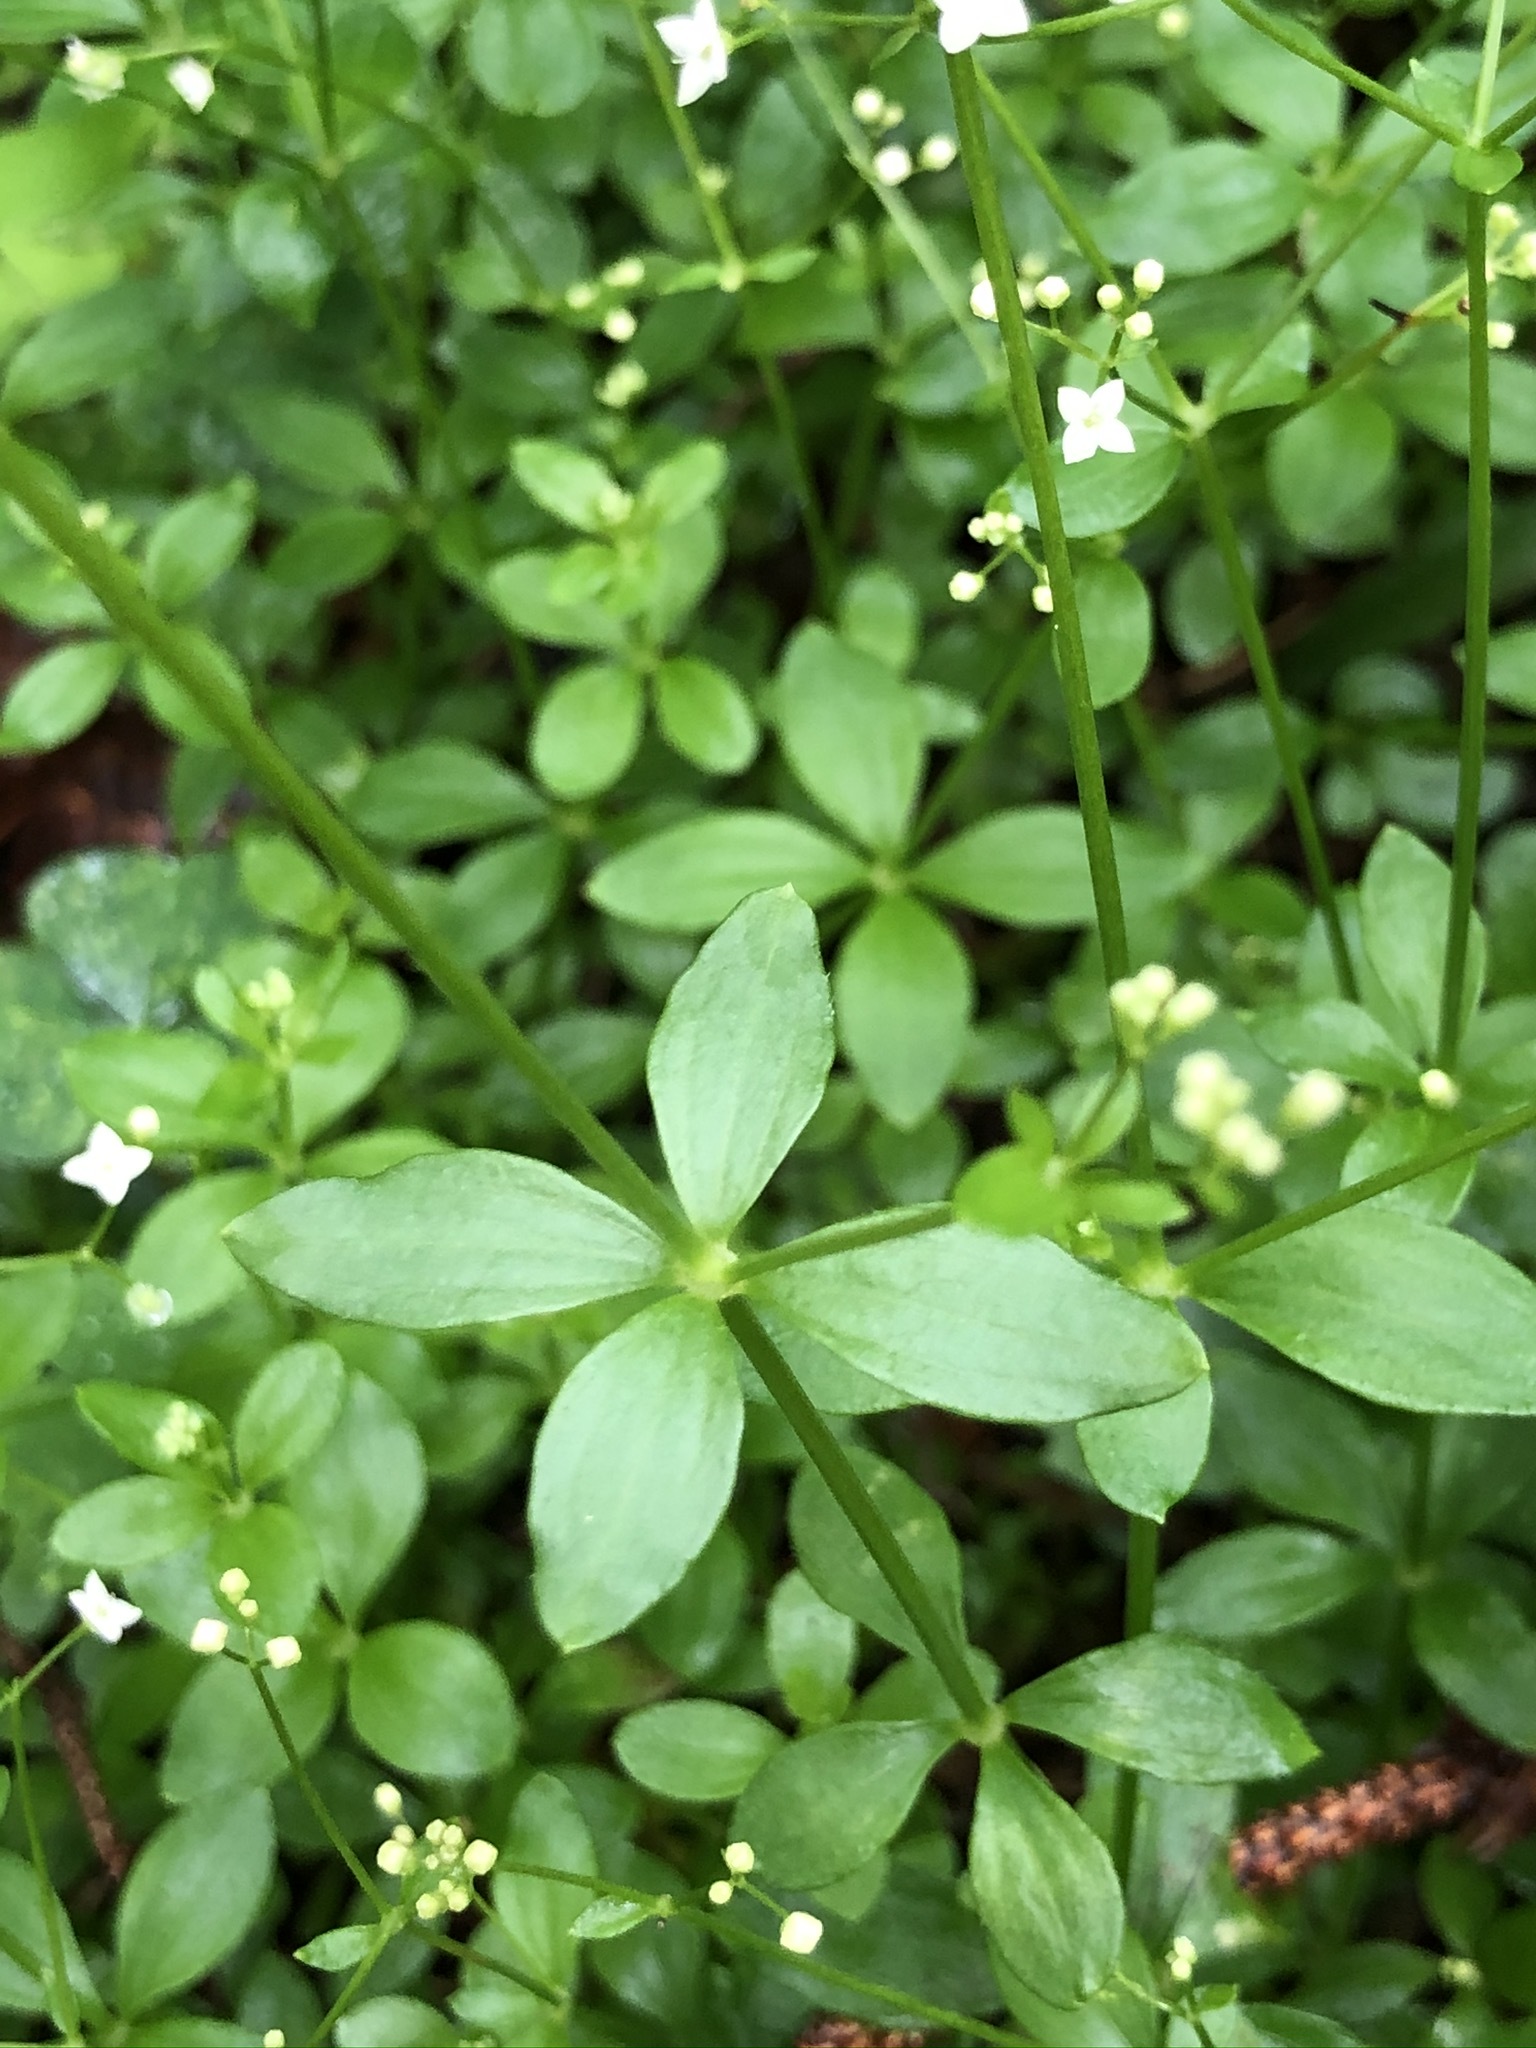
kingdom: Plantae
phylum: Tracheophyta
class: Magnoliopsida
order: Gentianales
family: Rubiaceae
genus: Galium
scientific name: Galium rotundifolium
